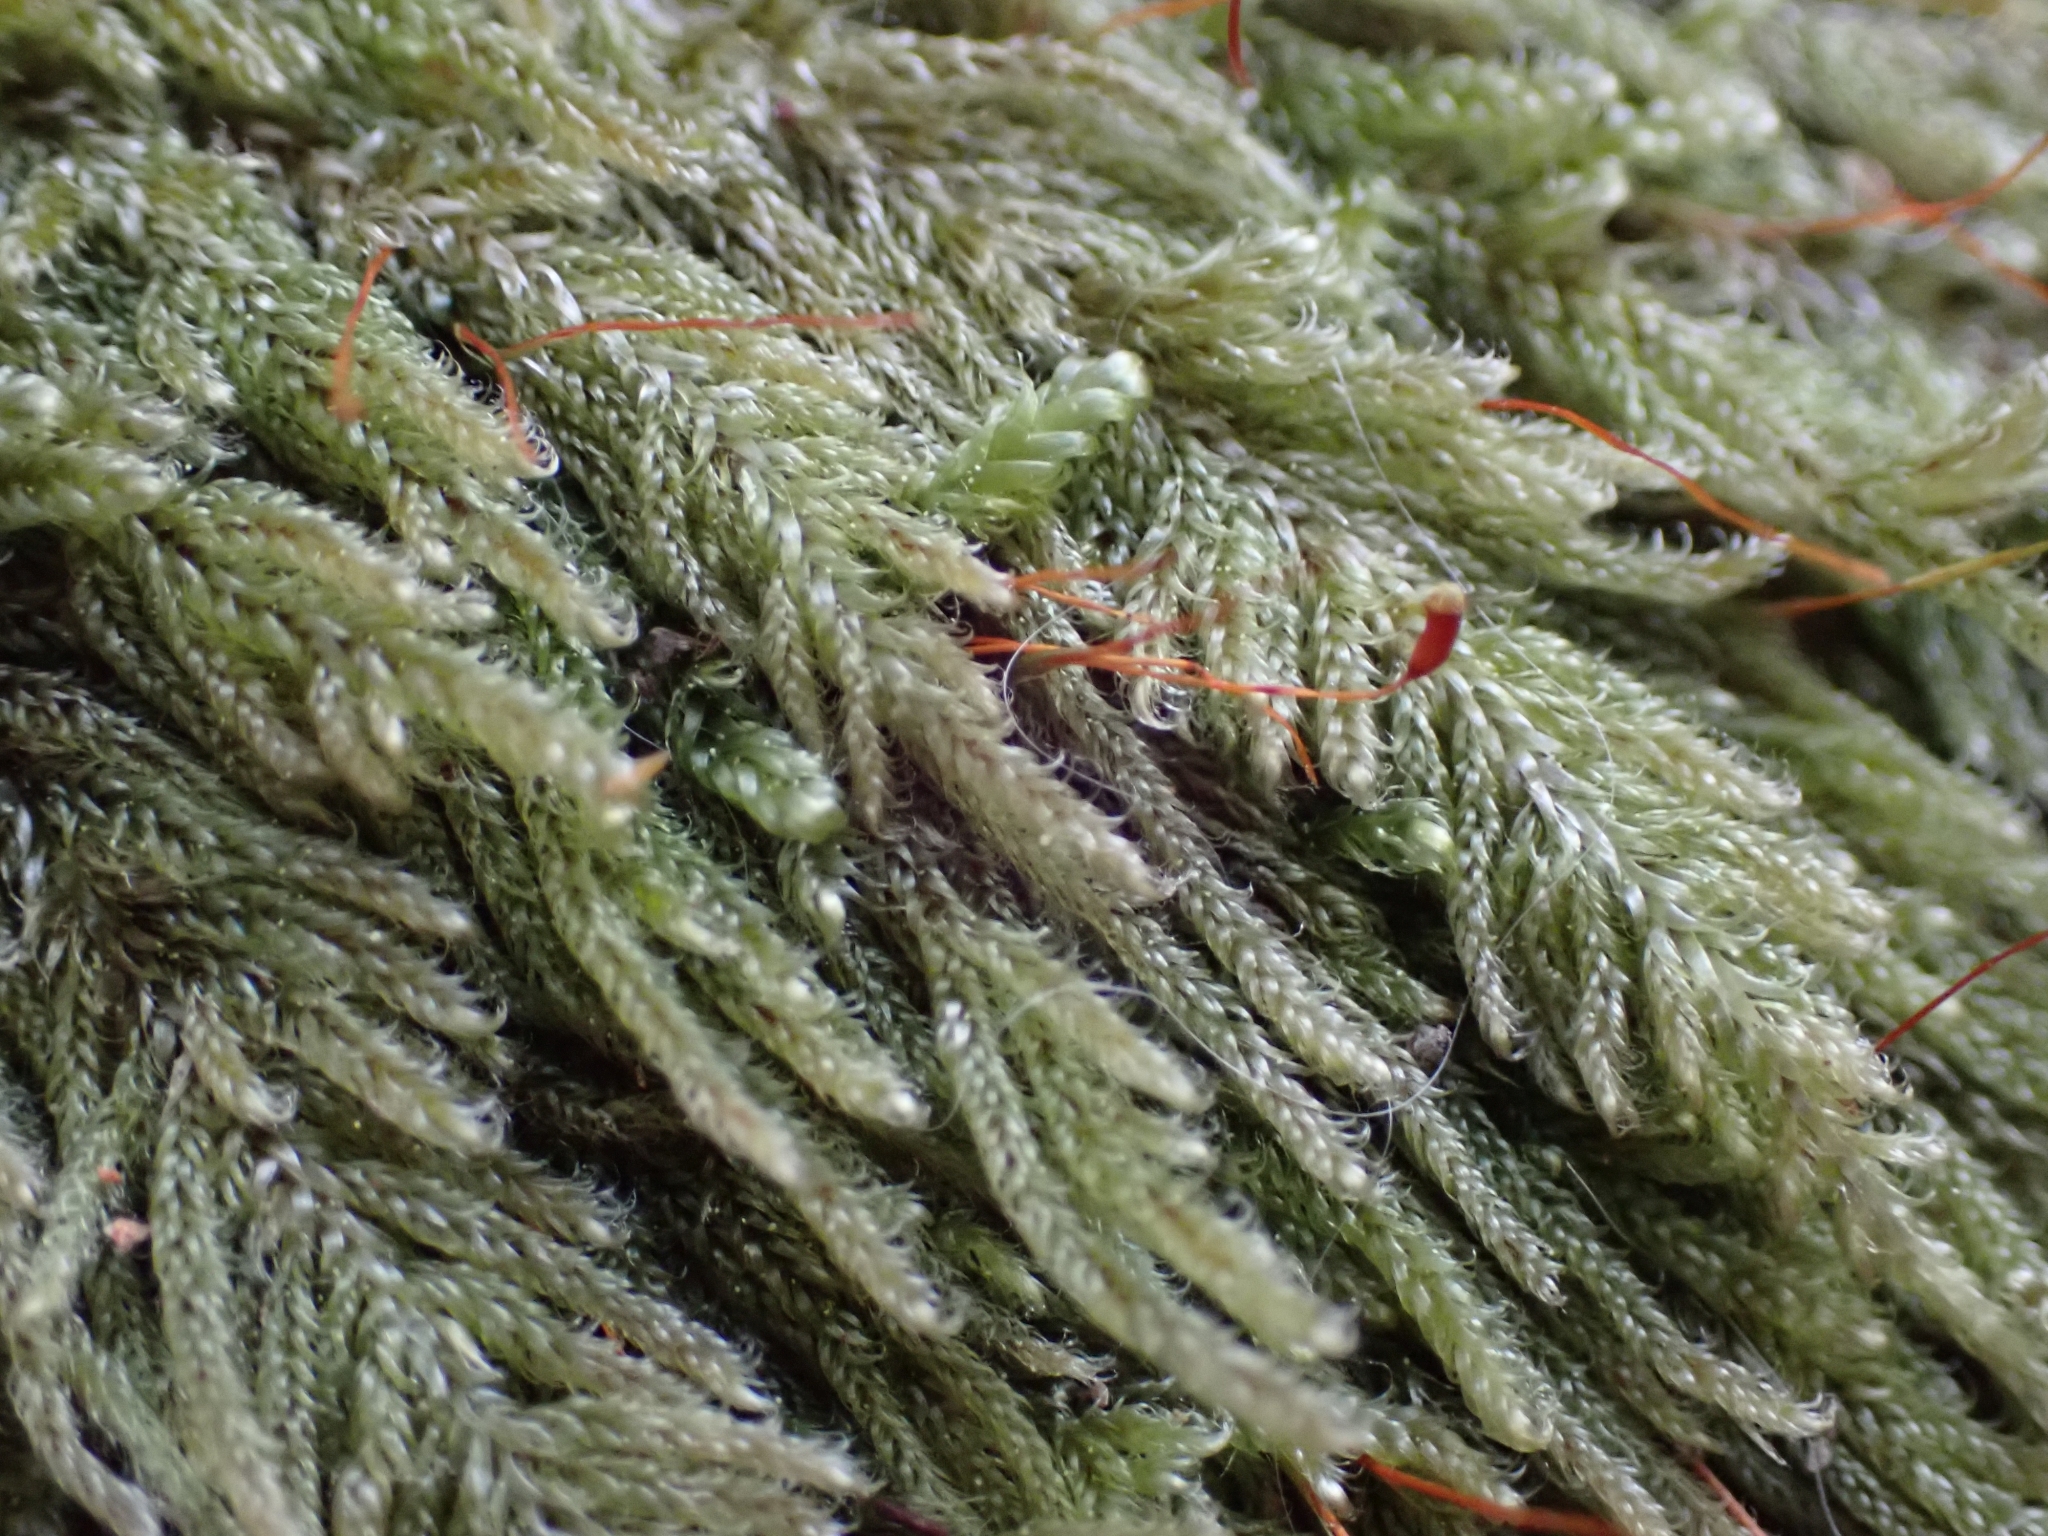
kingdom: Plantae
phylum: Bryophyta
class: Bryopsida
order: Hypnales
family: Pylaisiadelphaceae
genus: Trochophyllohypnum
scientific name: Trochophyllohypnum circinale
